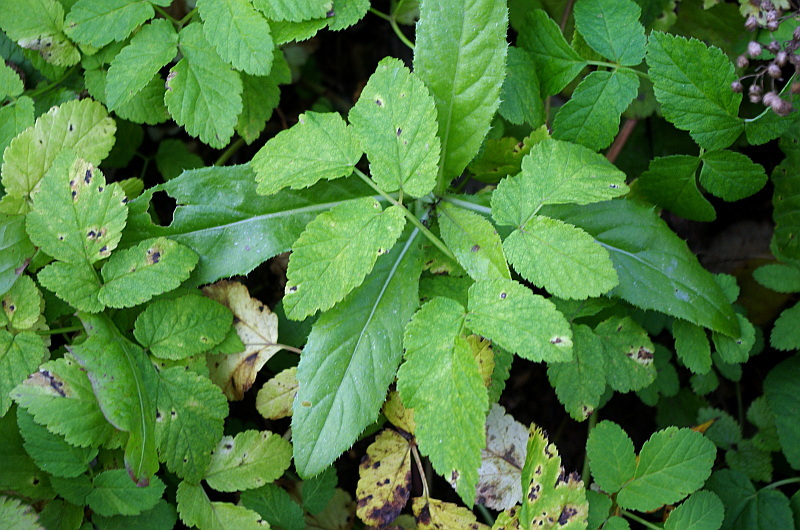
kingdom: Plantae
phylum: Tracheophyta
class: Magnoliopsida
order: Apiales
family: Apiaceae
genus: Aegopodium
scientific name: Aegopodium podagraria
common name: Ground-elder
